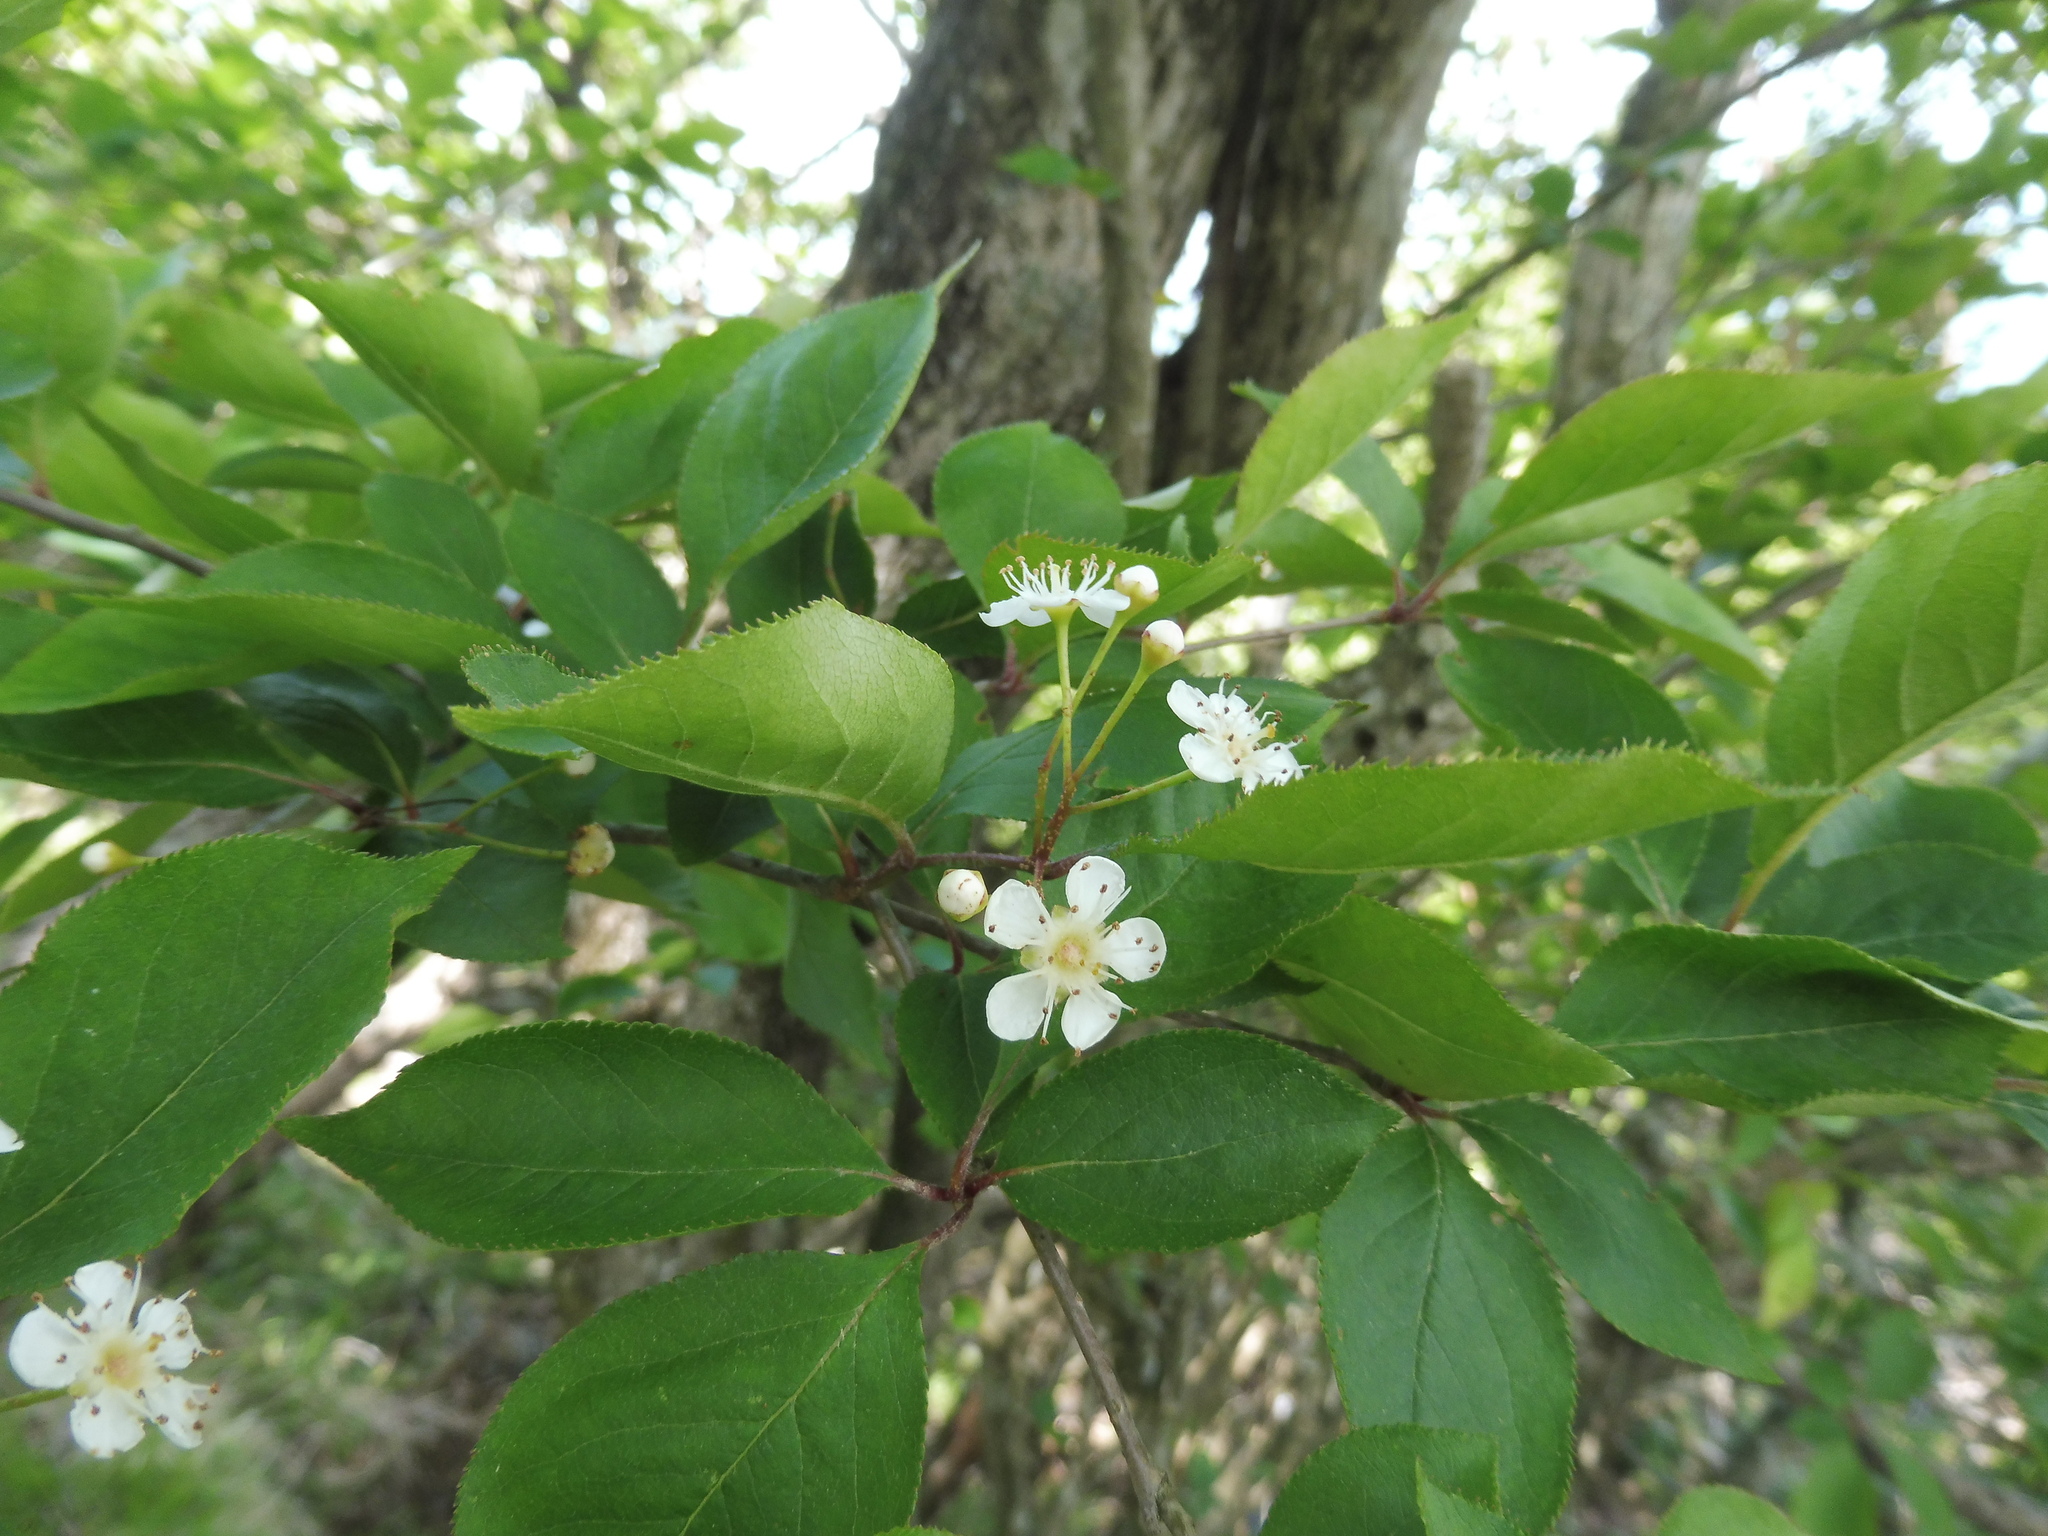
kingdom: Plantae
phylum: Tracheophyta
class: Magnoliopsida
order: Rosales
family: Rosaceae
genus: Pourthiaea
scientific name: Pourthiaea villosa
